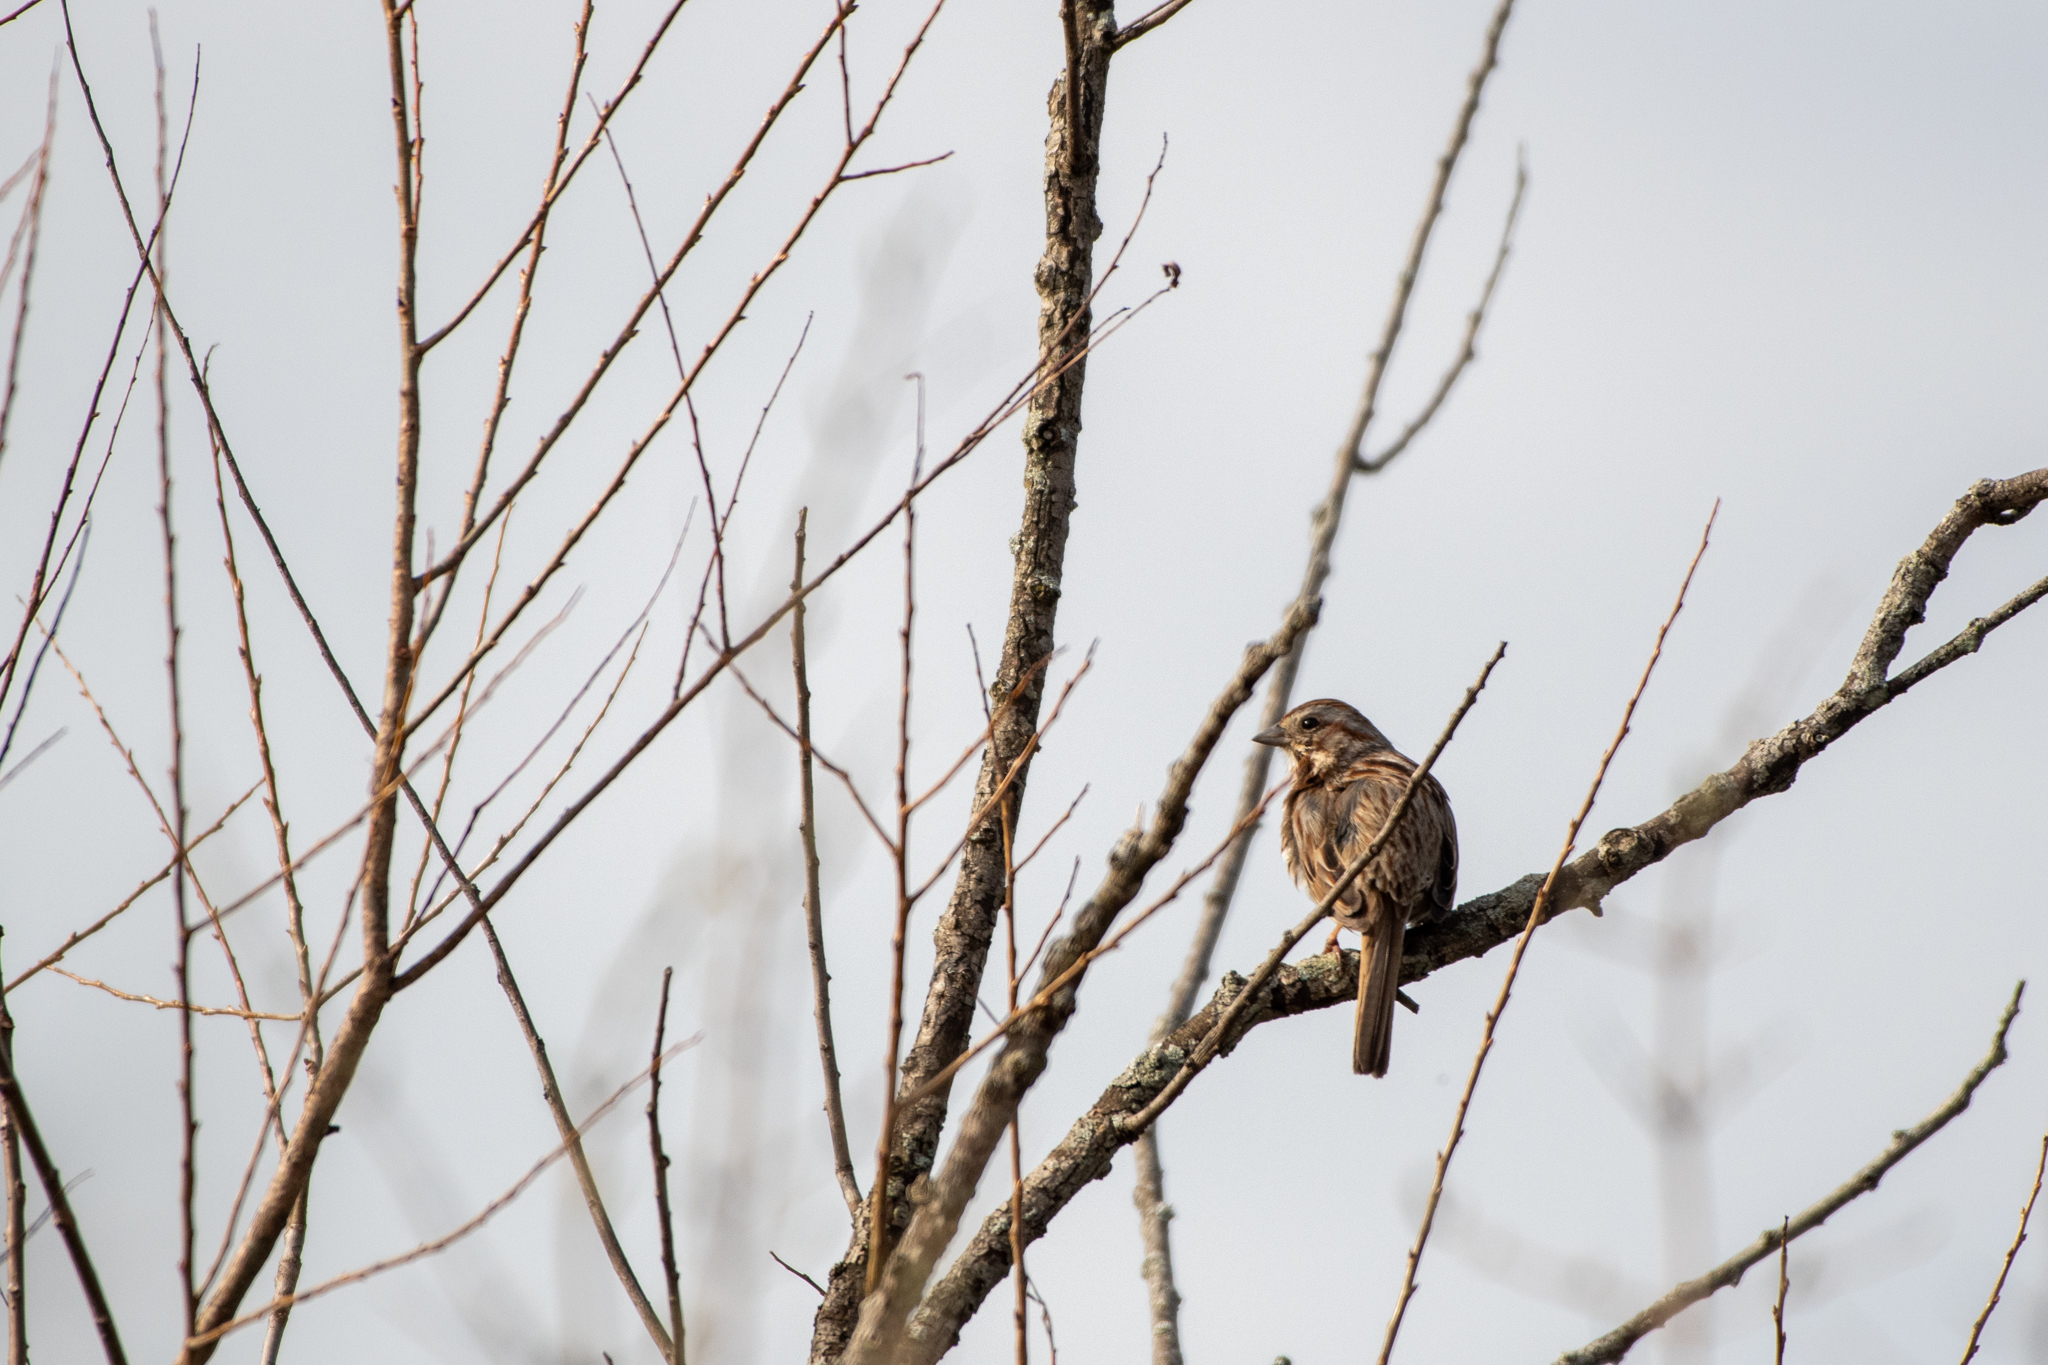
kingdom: Animalia
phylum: Chordata
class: Aves
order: Passeriformes
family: Passerellidae
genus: Melospiza
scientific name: Melospiza melodia
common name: Song sparrow
